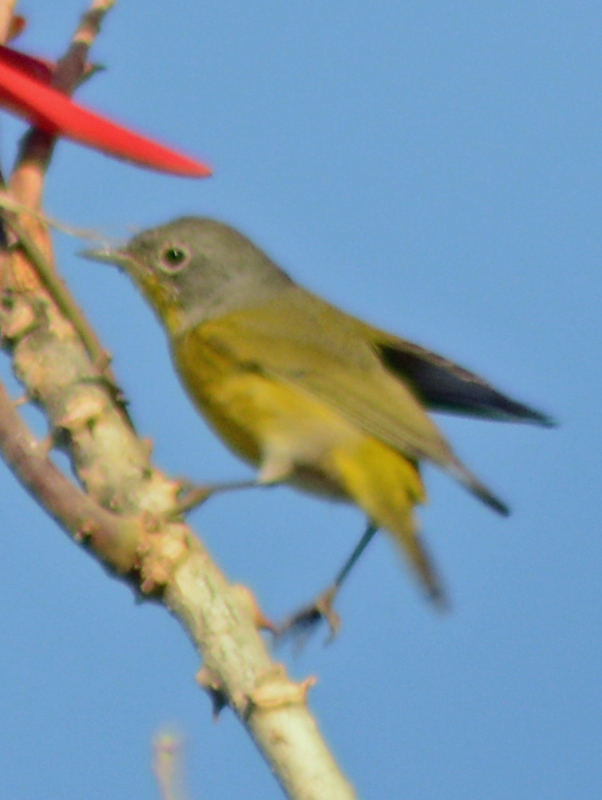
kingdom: Animalia
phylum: Chordata
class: Aves
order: Passeriformes
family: Parulidae
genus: Leiothlypis
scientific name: Leiothlypis ruficapilla
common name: Nashville warbler
